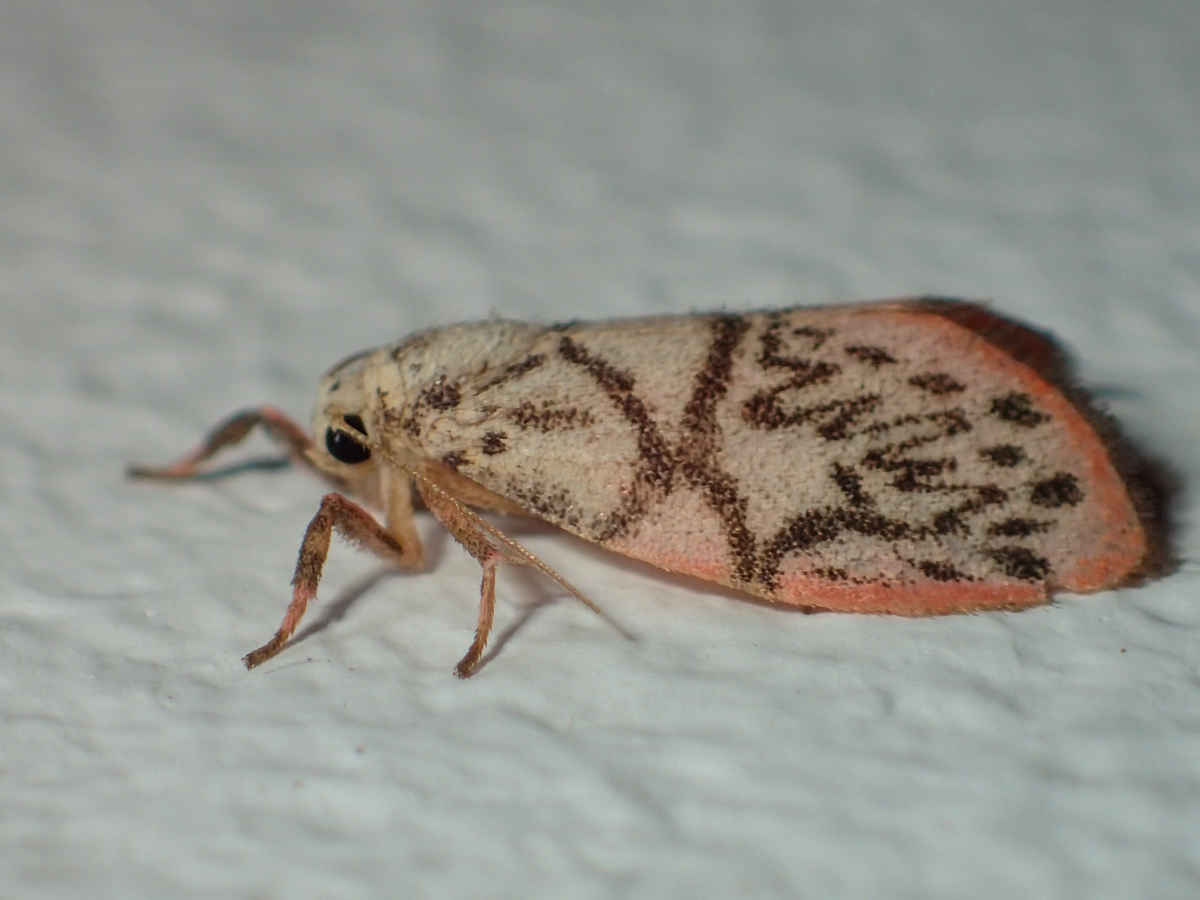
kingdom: Animalia
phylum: Arthropoda
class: Insecta
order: Lepidoptera
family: Erebidae
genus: Miltochrista
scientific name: Miltochrista irregularis
